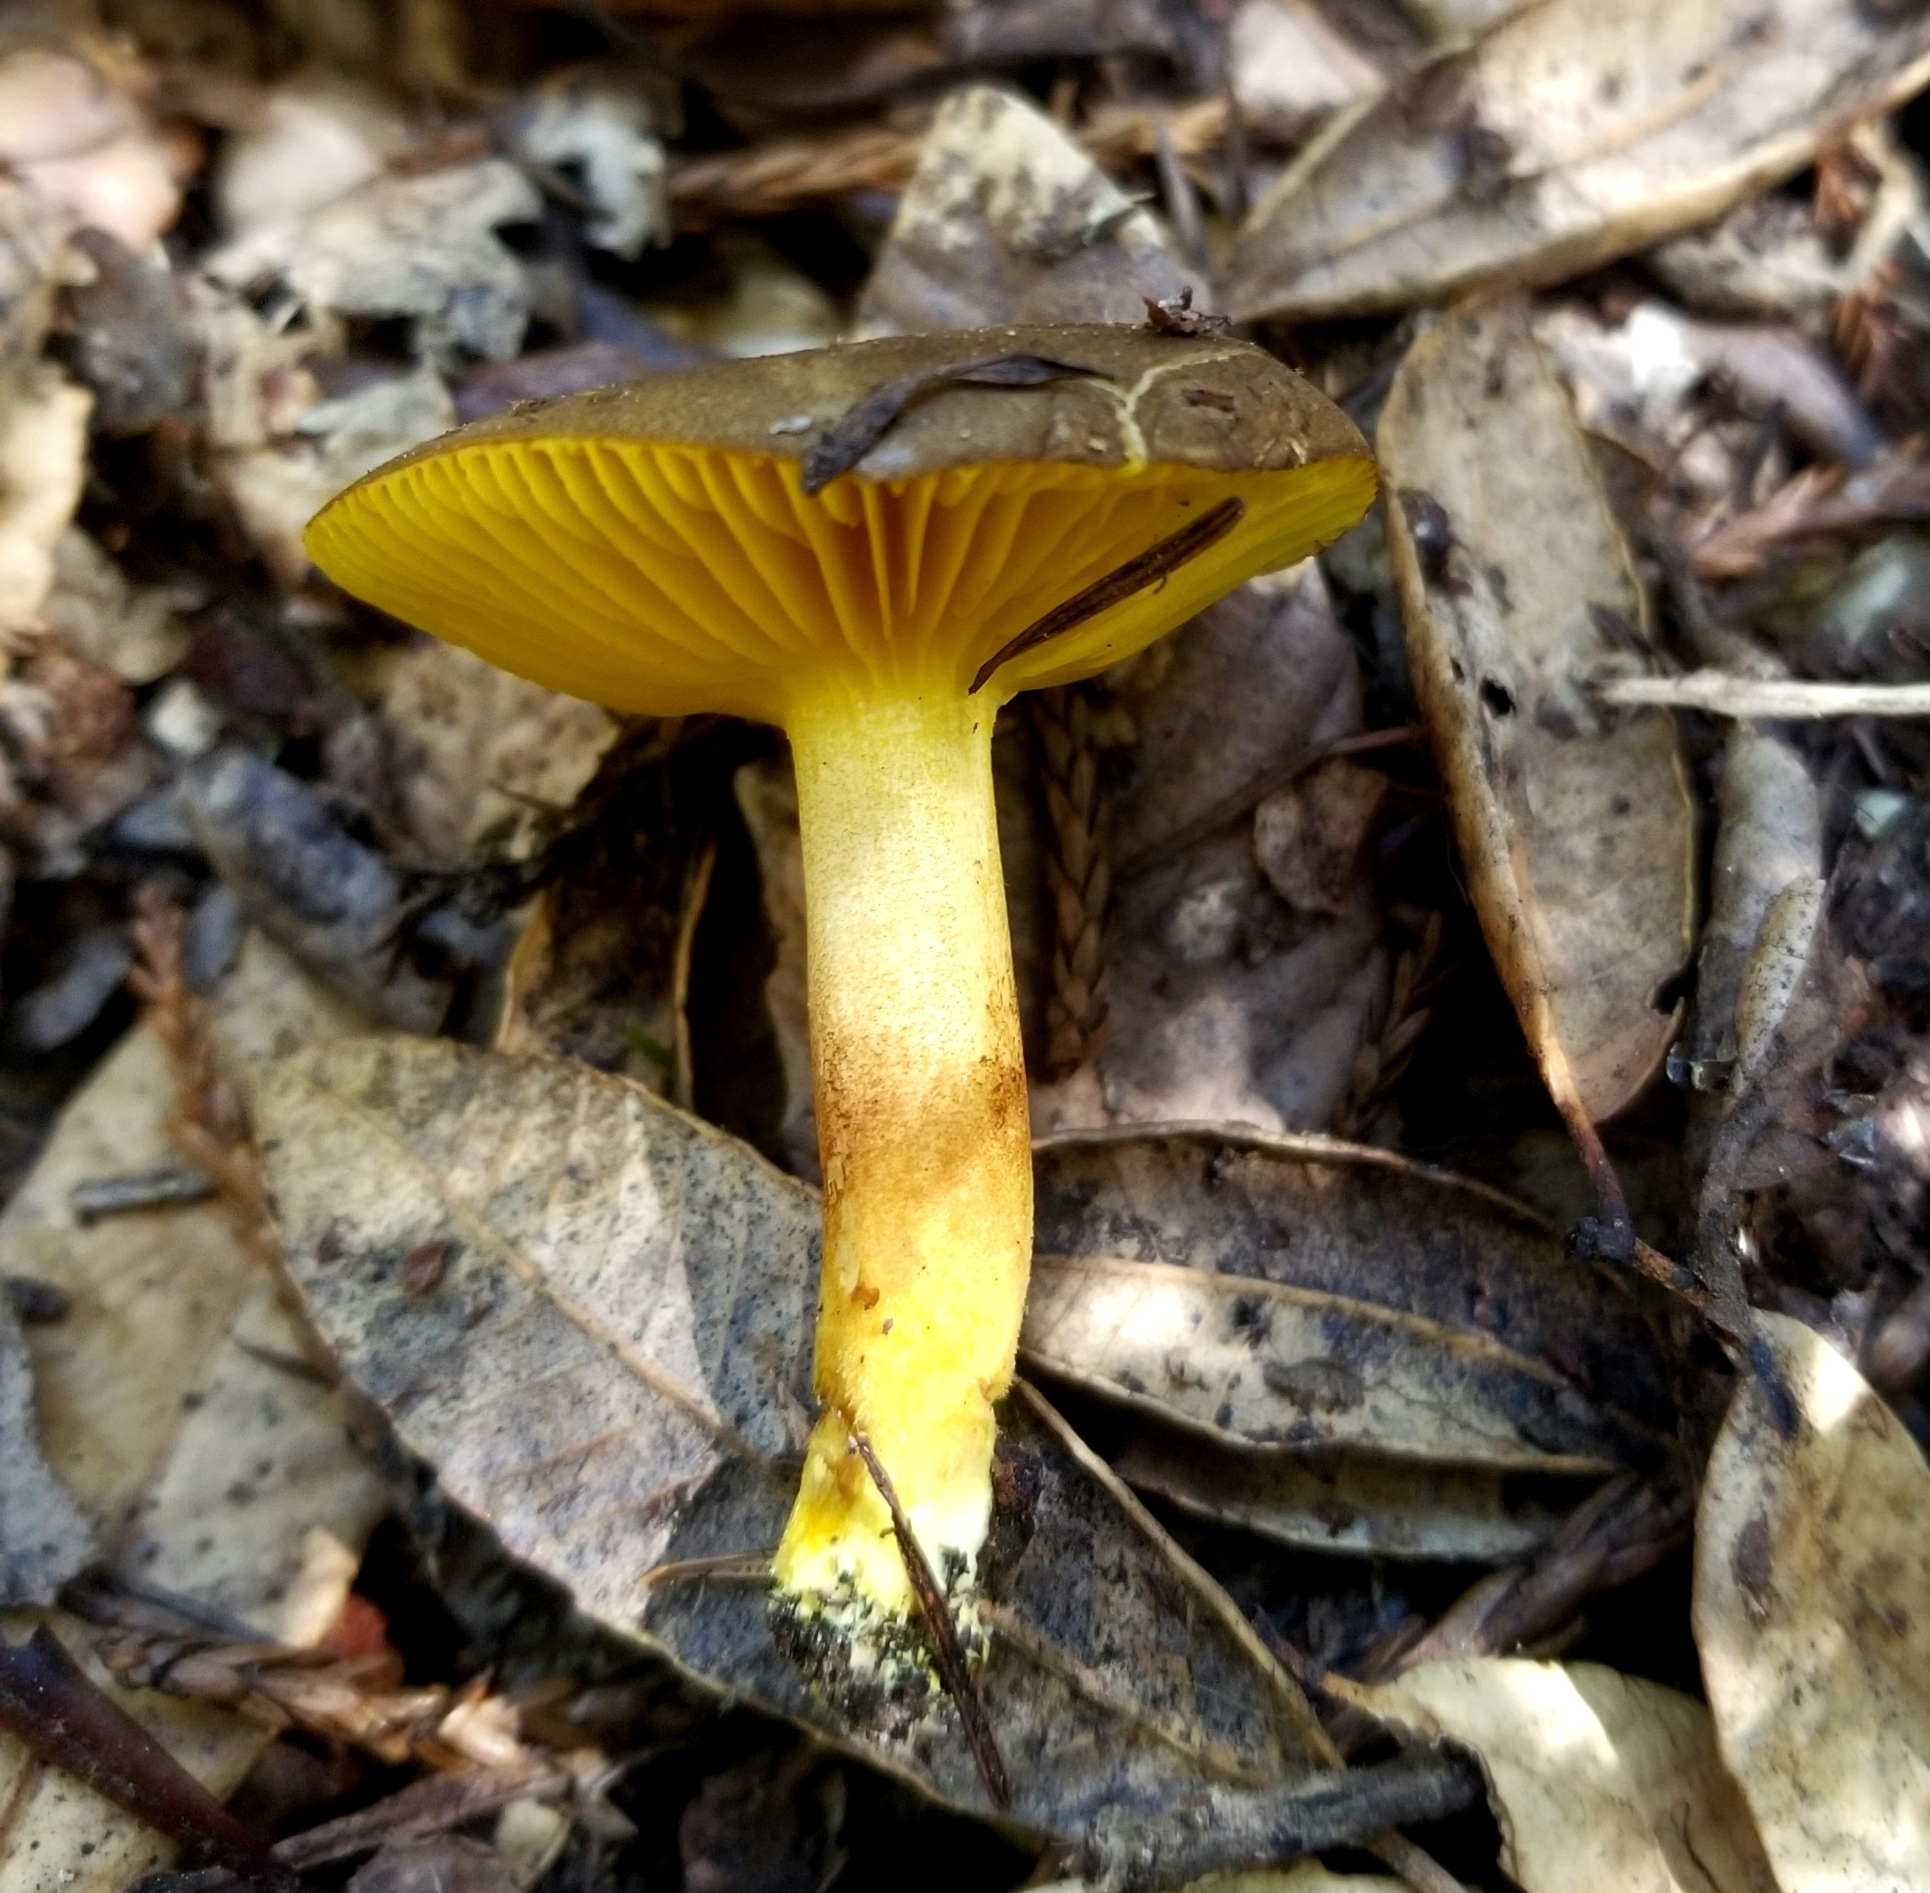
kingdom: Fungi
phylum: Basidiomycota
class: Agaricomycetes
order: Boletales
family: Boletaceae
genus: Phylloporus
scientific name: Phylloporus arenicola
